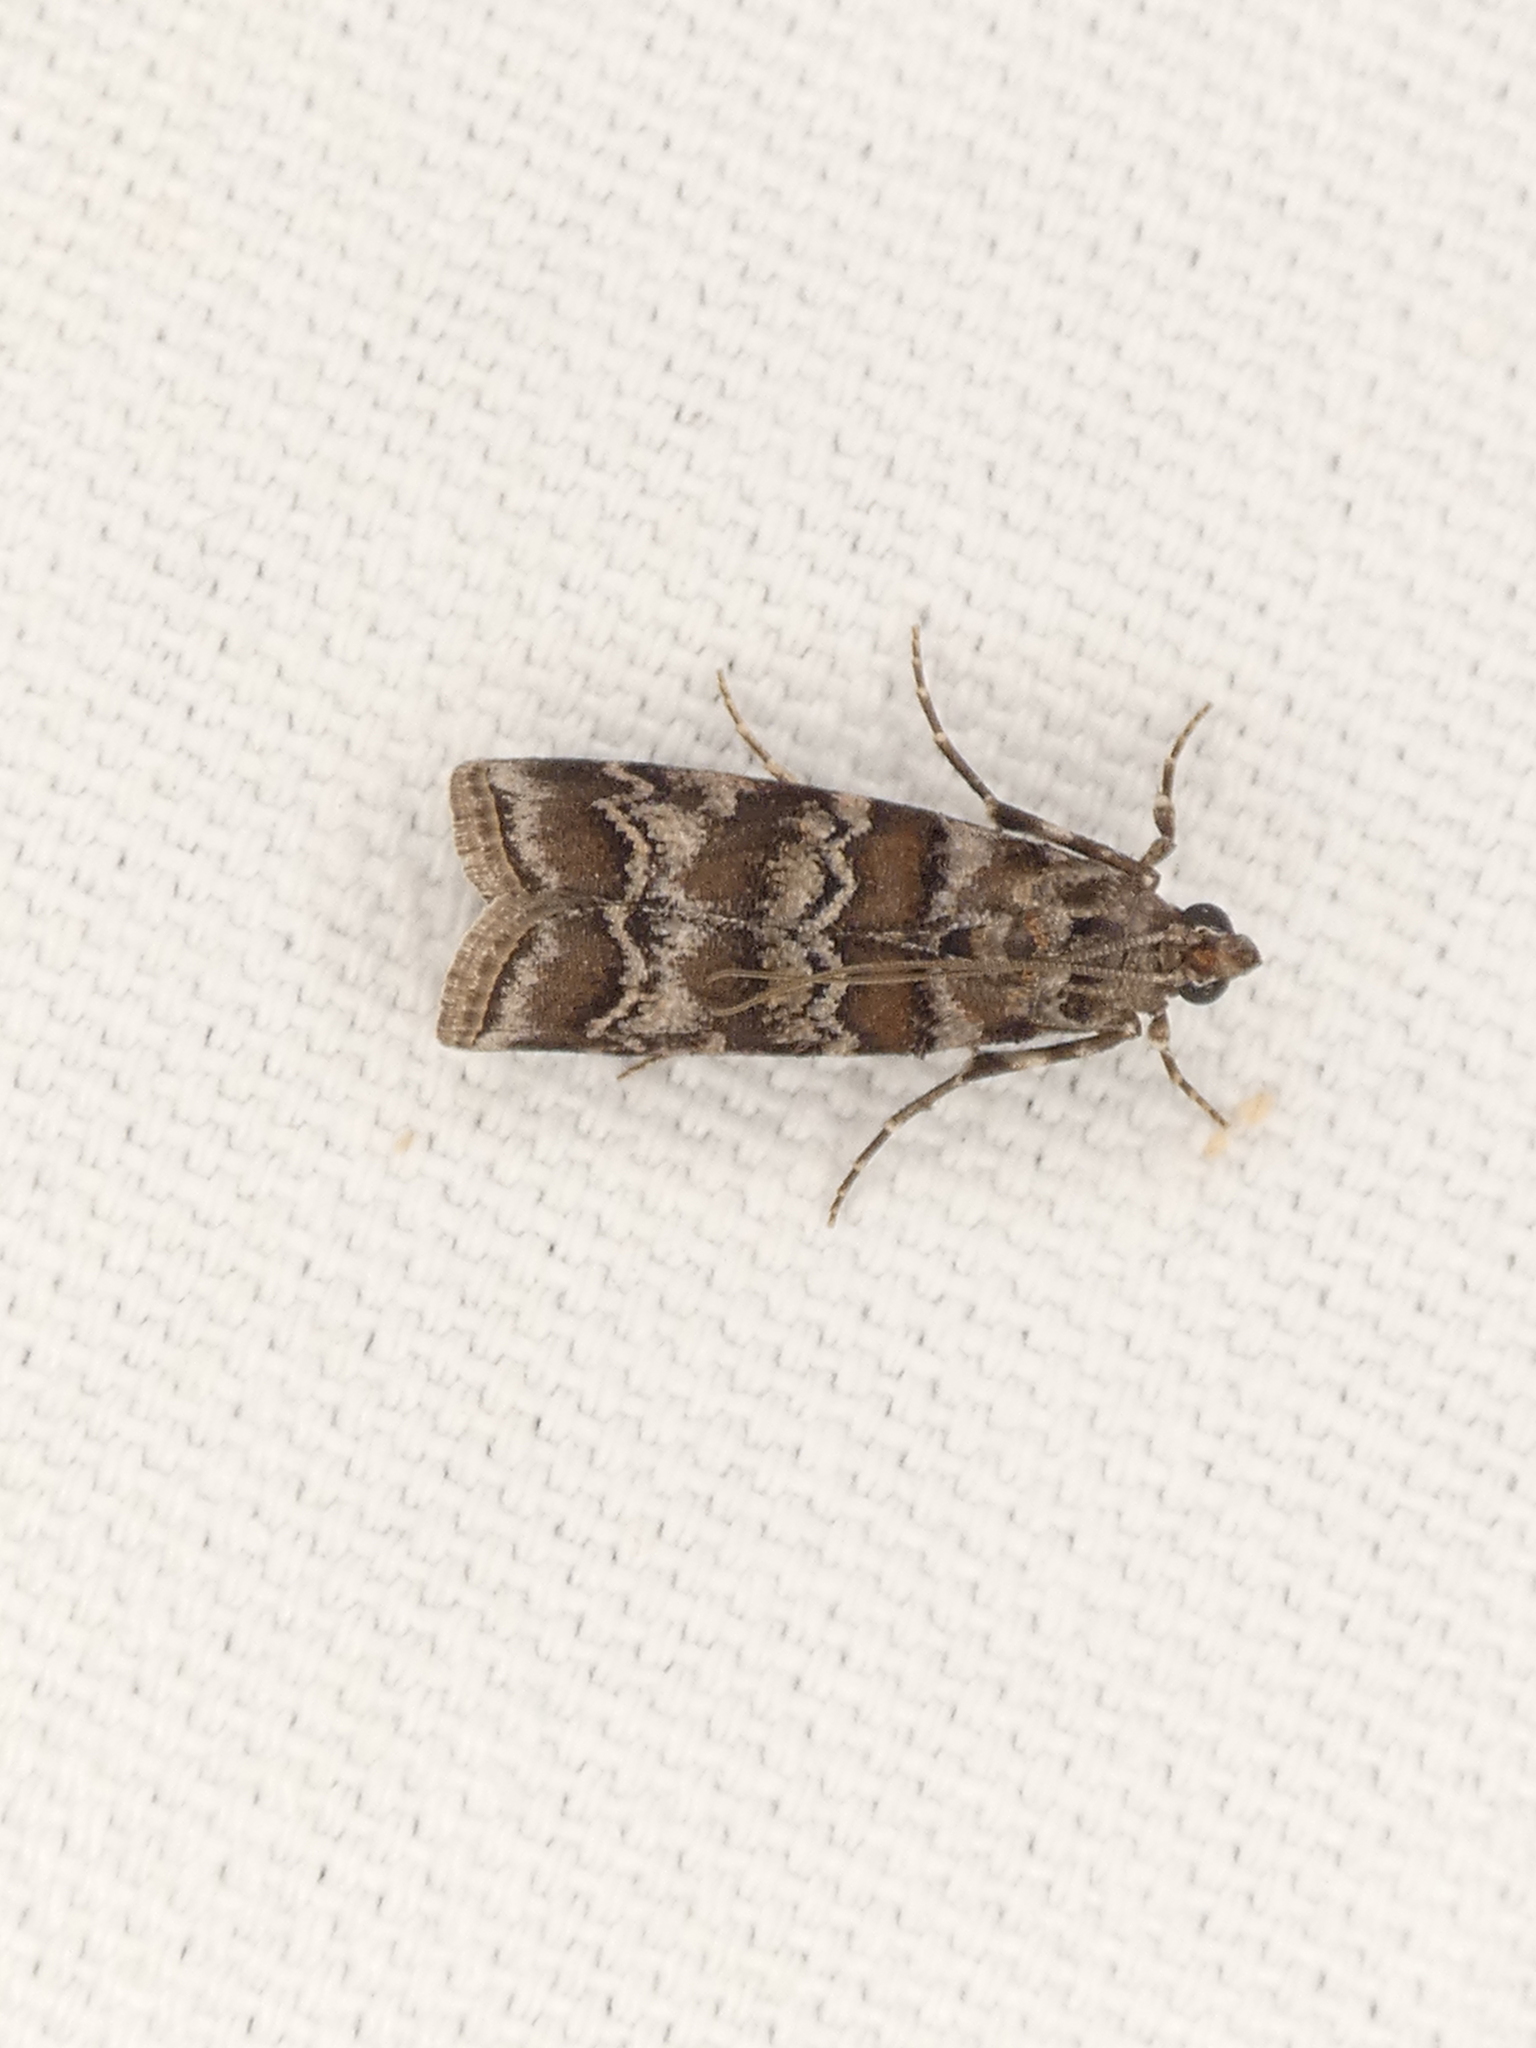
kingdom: Animalia
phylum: Arthropoda
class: Insecta
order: Lepidoptera
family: Pyralidae
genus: Dioryctria
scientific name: Dioryctria amatella
